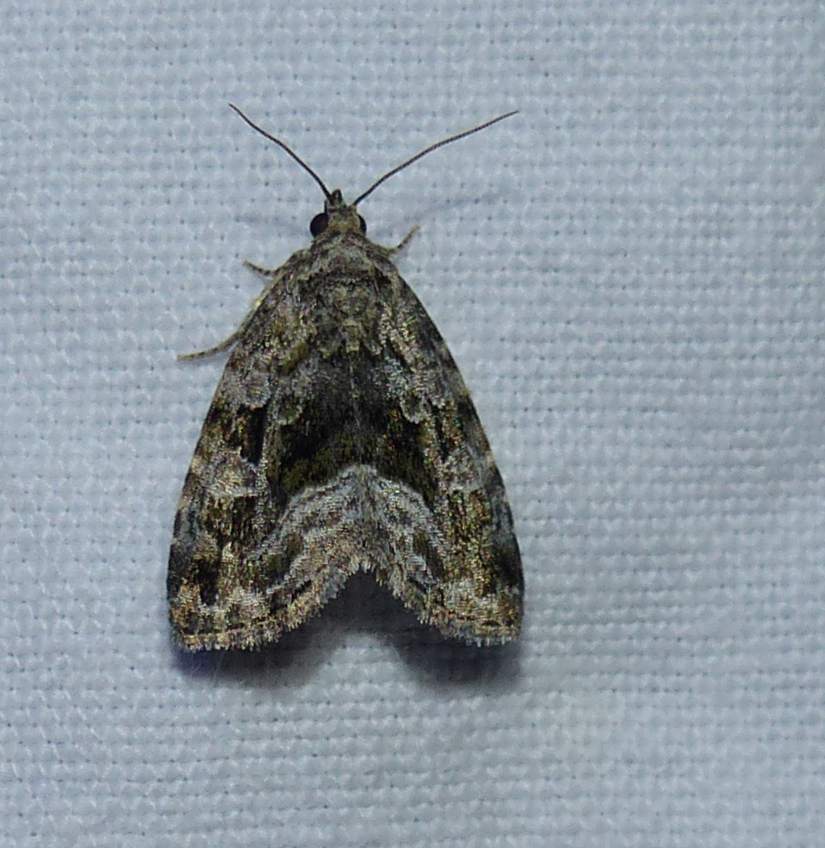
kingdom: Animalia
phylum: Arthropoda
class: Insecta
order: Lepidoptera
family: Noctuidae
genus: Protodeltote
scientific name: Protodeltote muscosula
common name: Large mossy glyph
